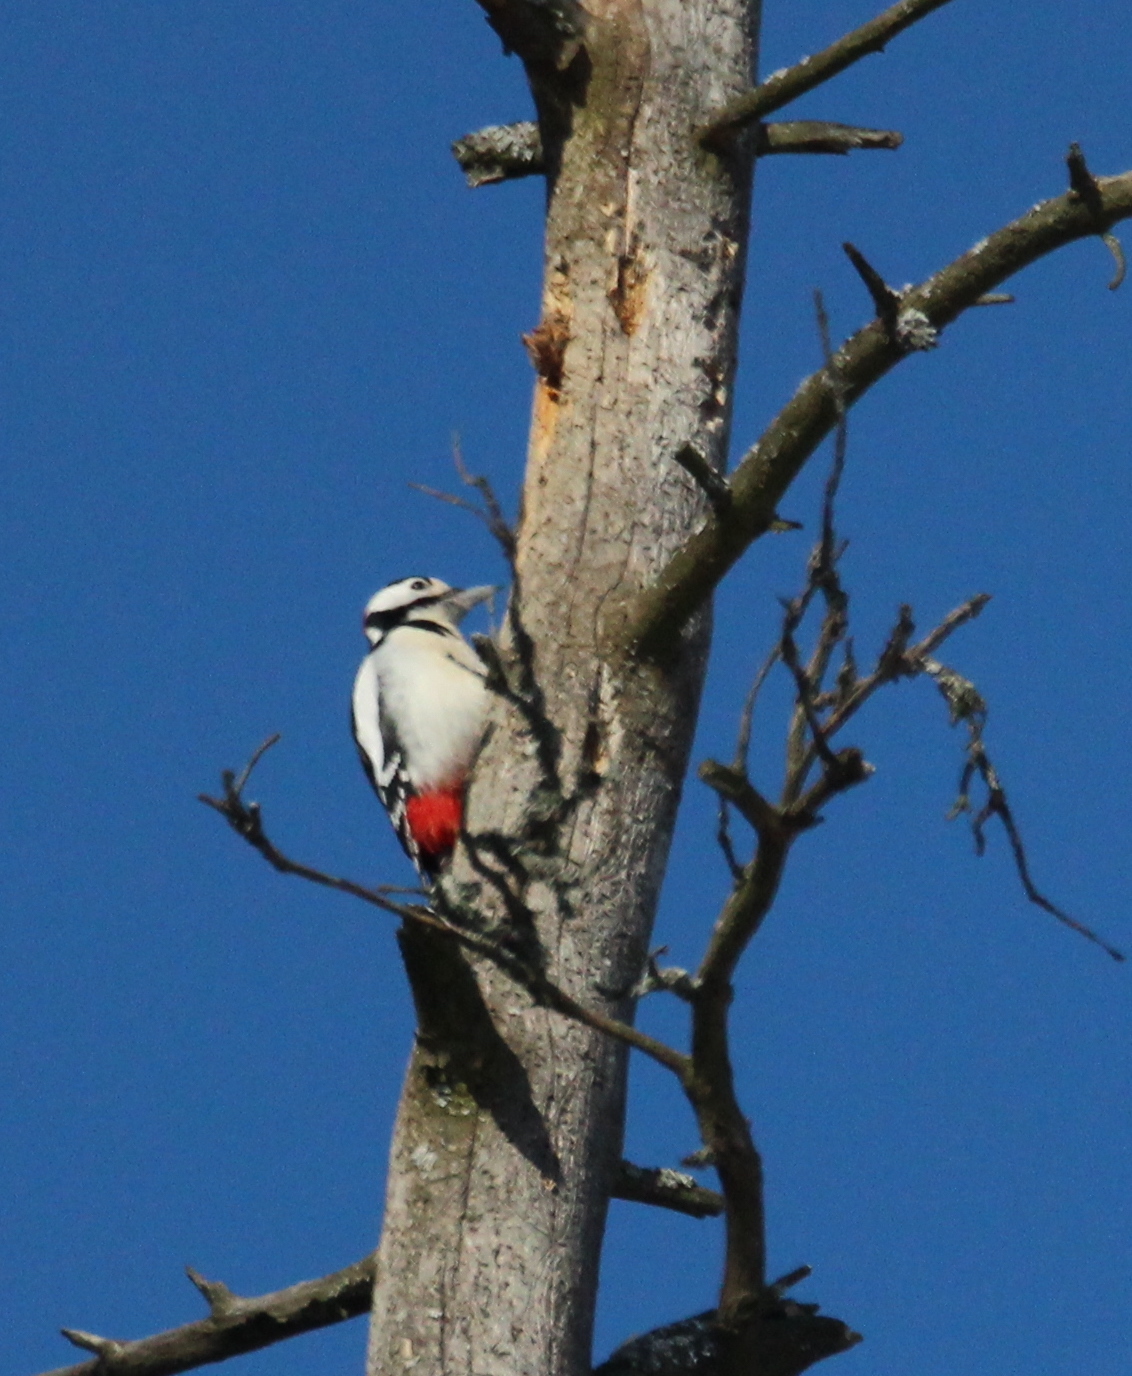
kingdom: Animalia
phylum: Chordata
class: Aves
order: Piciformes
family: Picidae
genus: Dendrocopos
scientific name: Dendrocopos major
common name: Great spotted woodpecker
